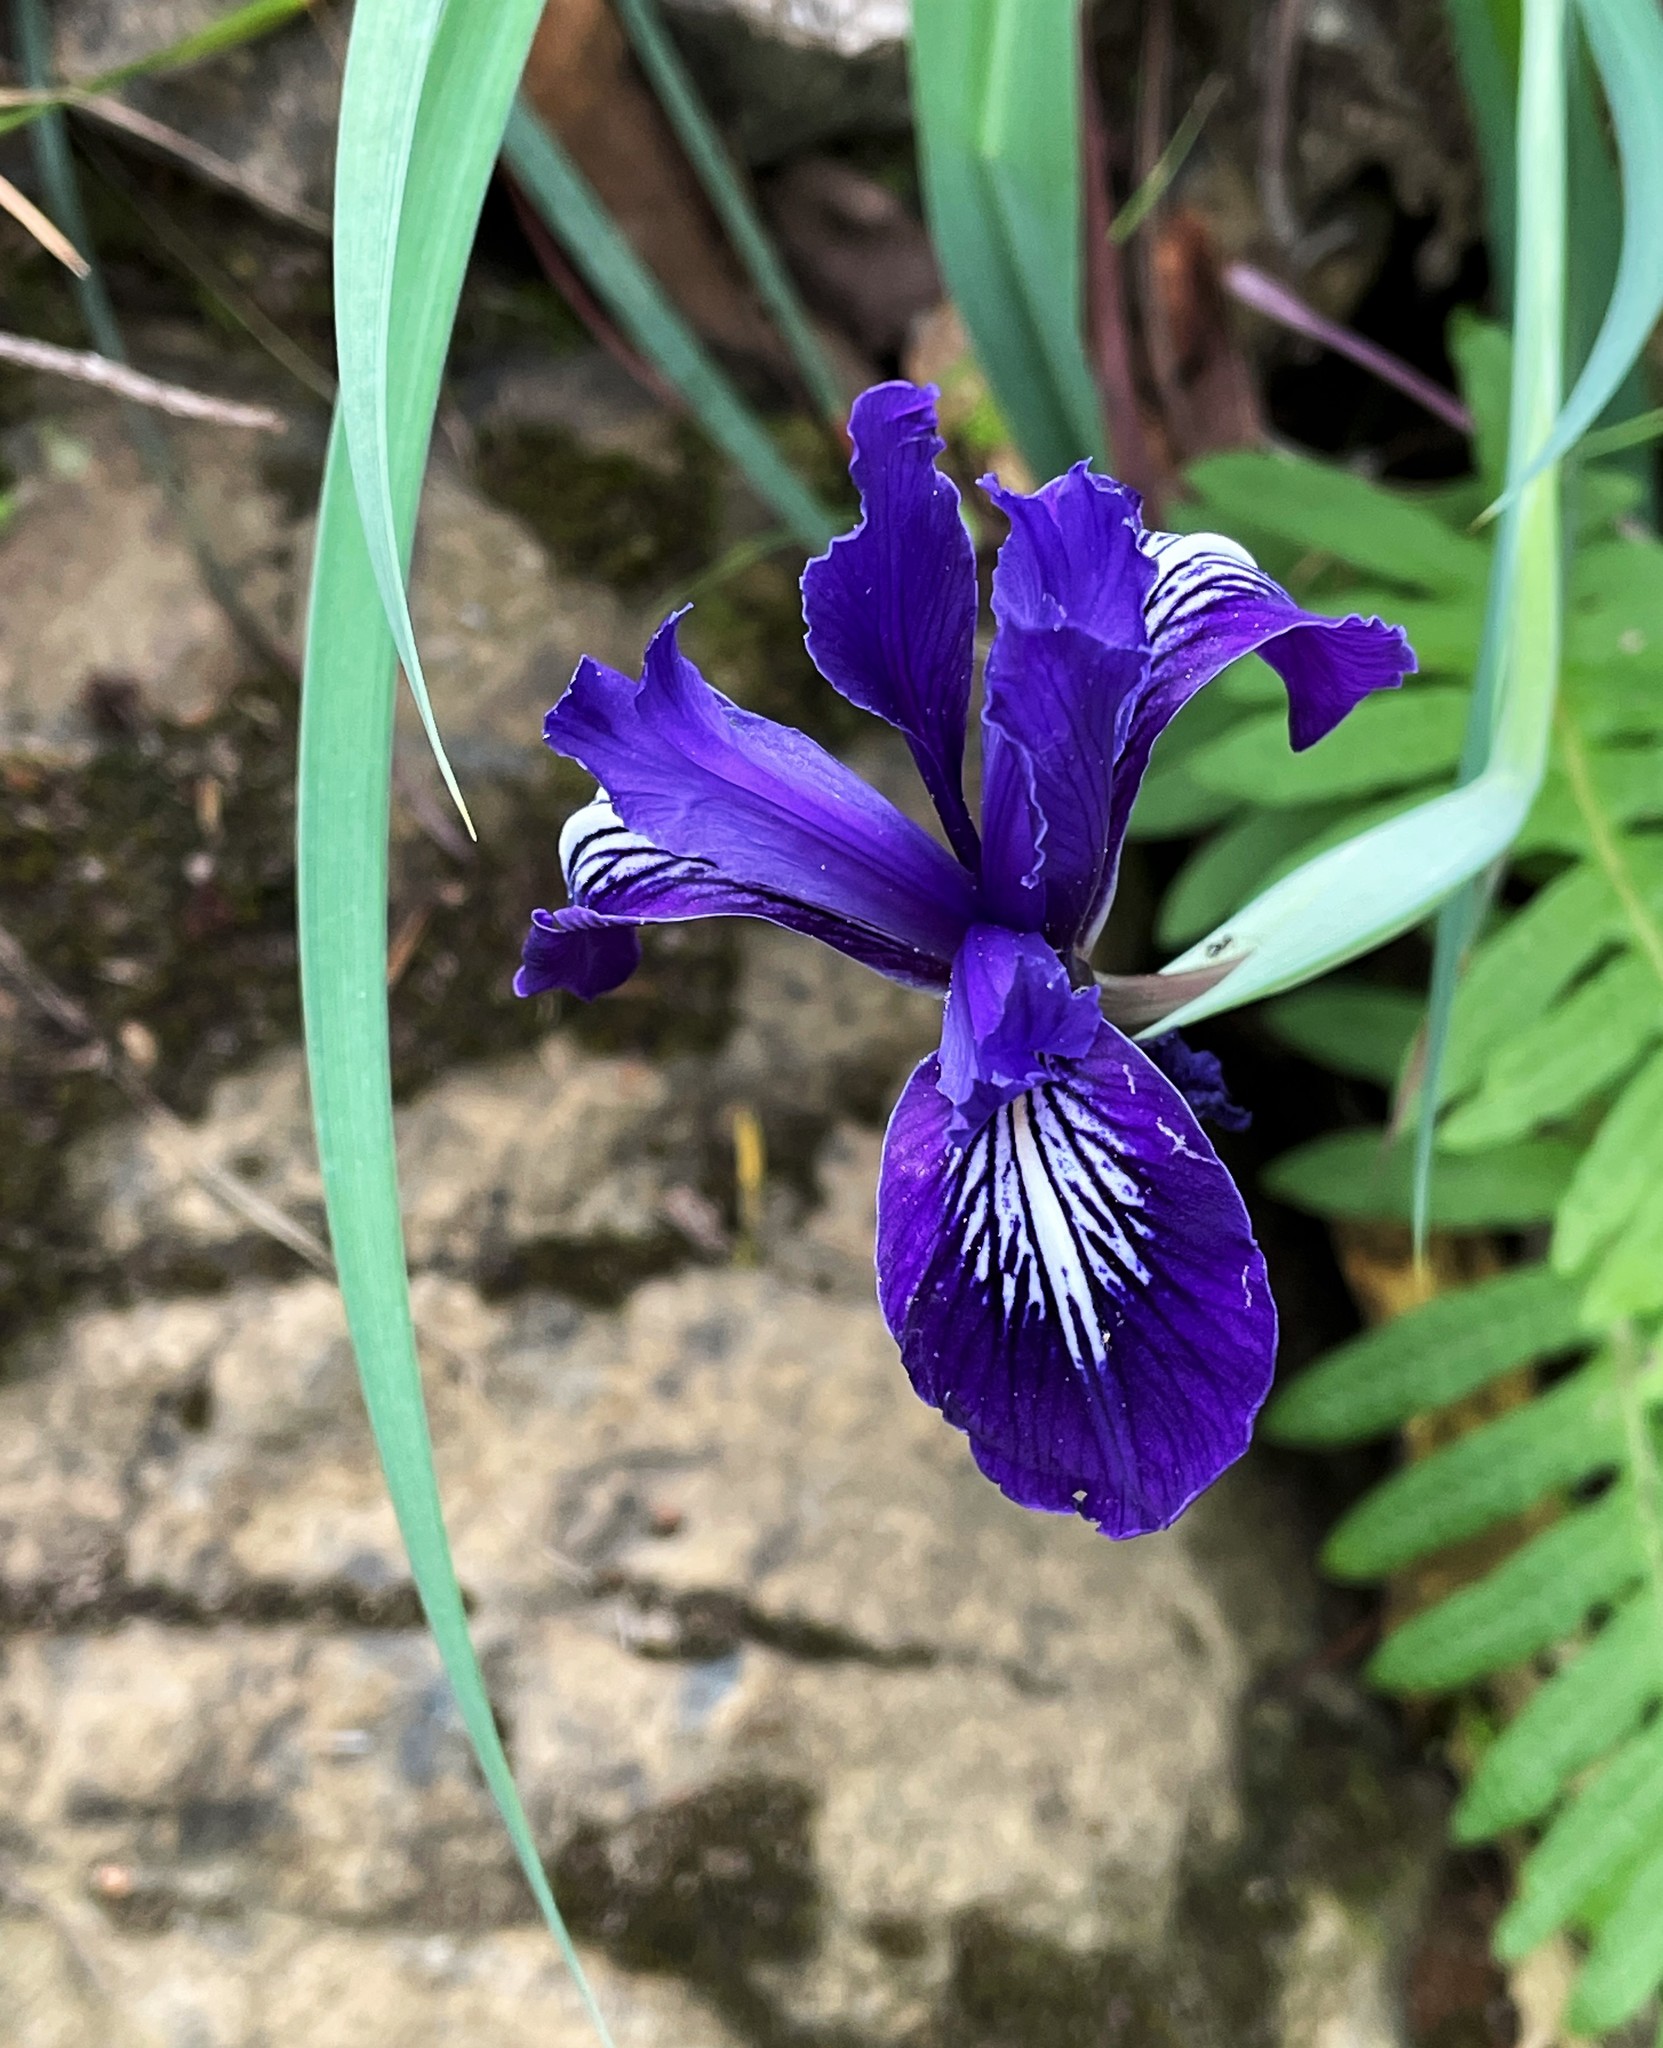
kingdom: Plantae
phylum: Tracheophyta
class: Liliopsida
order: Asparagales
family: Iridaceae
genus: Iris
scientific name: Iris macrosiphon
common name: Ground iris
